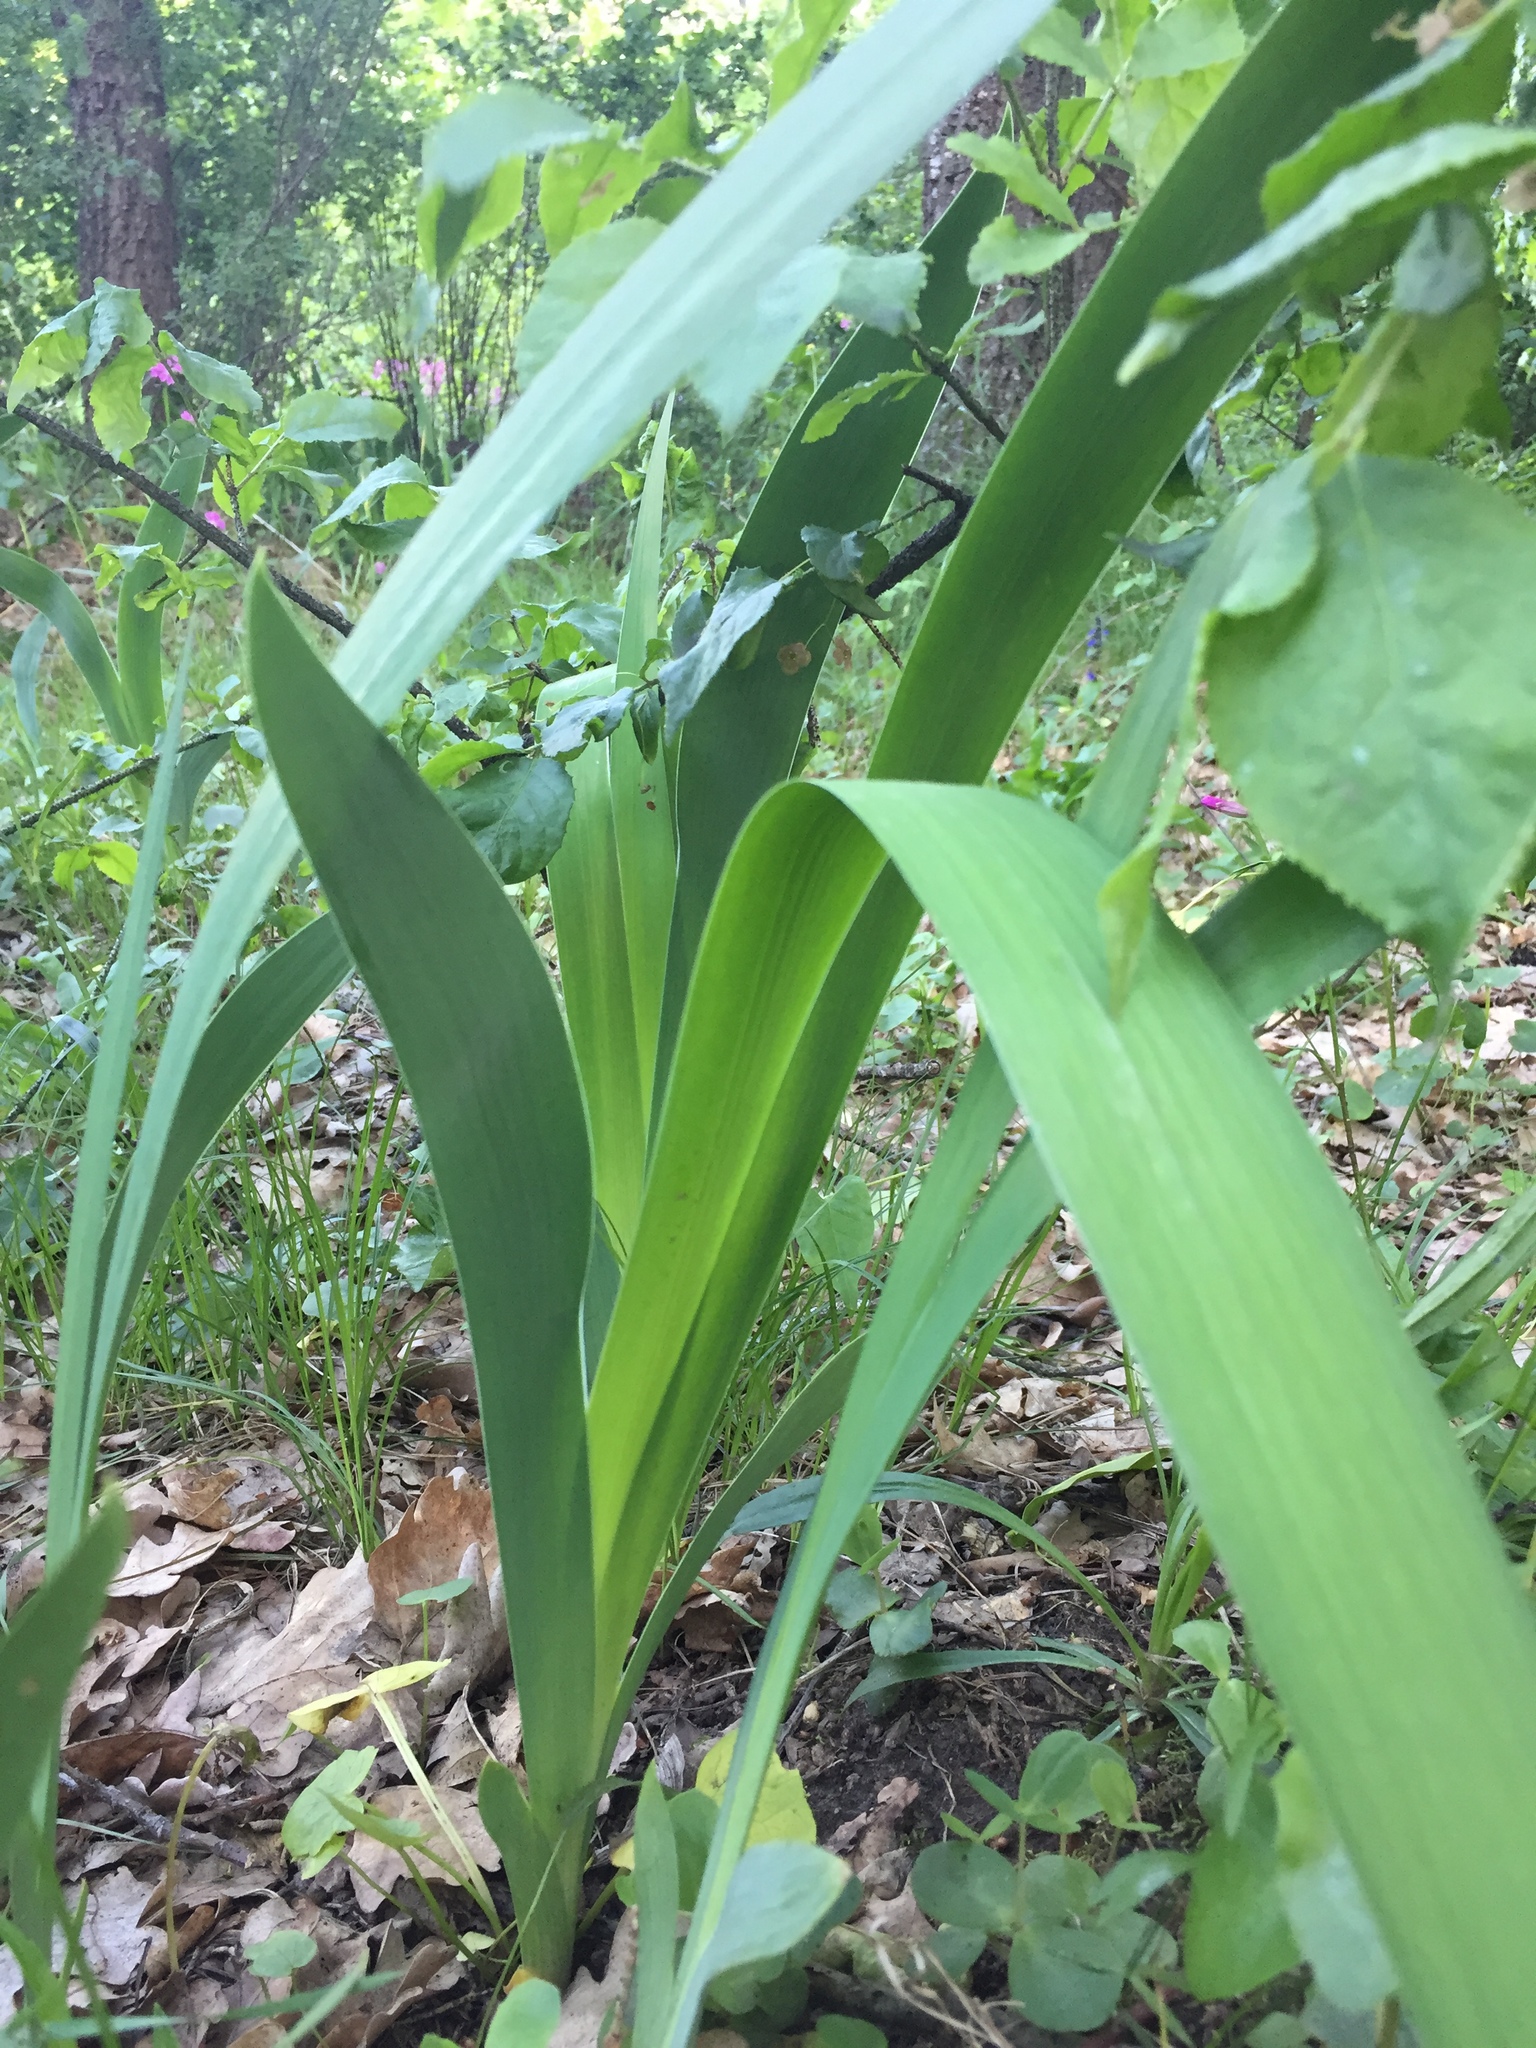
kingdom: Plantae
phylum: Tracheophyta
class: Liliopsida
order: Asparagales
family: Iridaceae
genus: Iris
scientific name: Iris aphylla
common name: Stool iris
